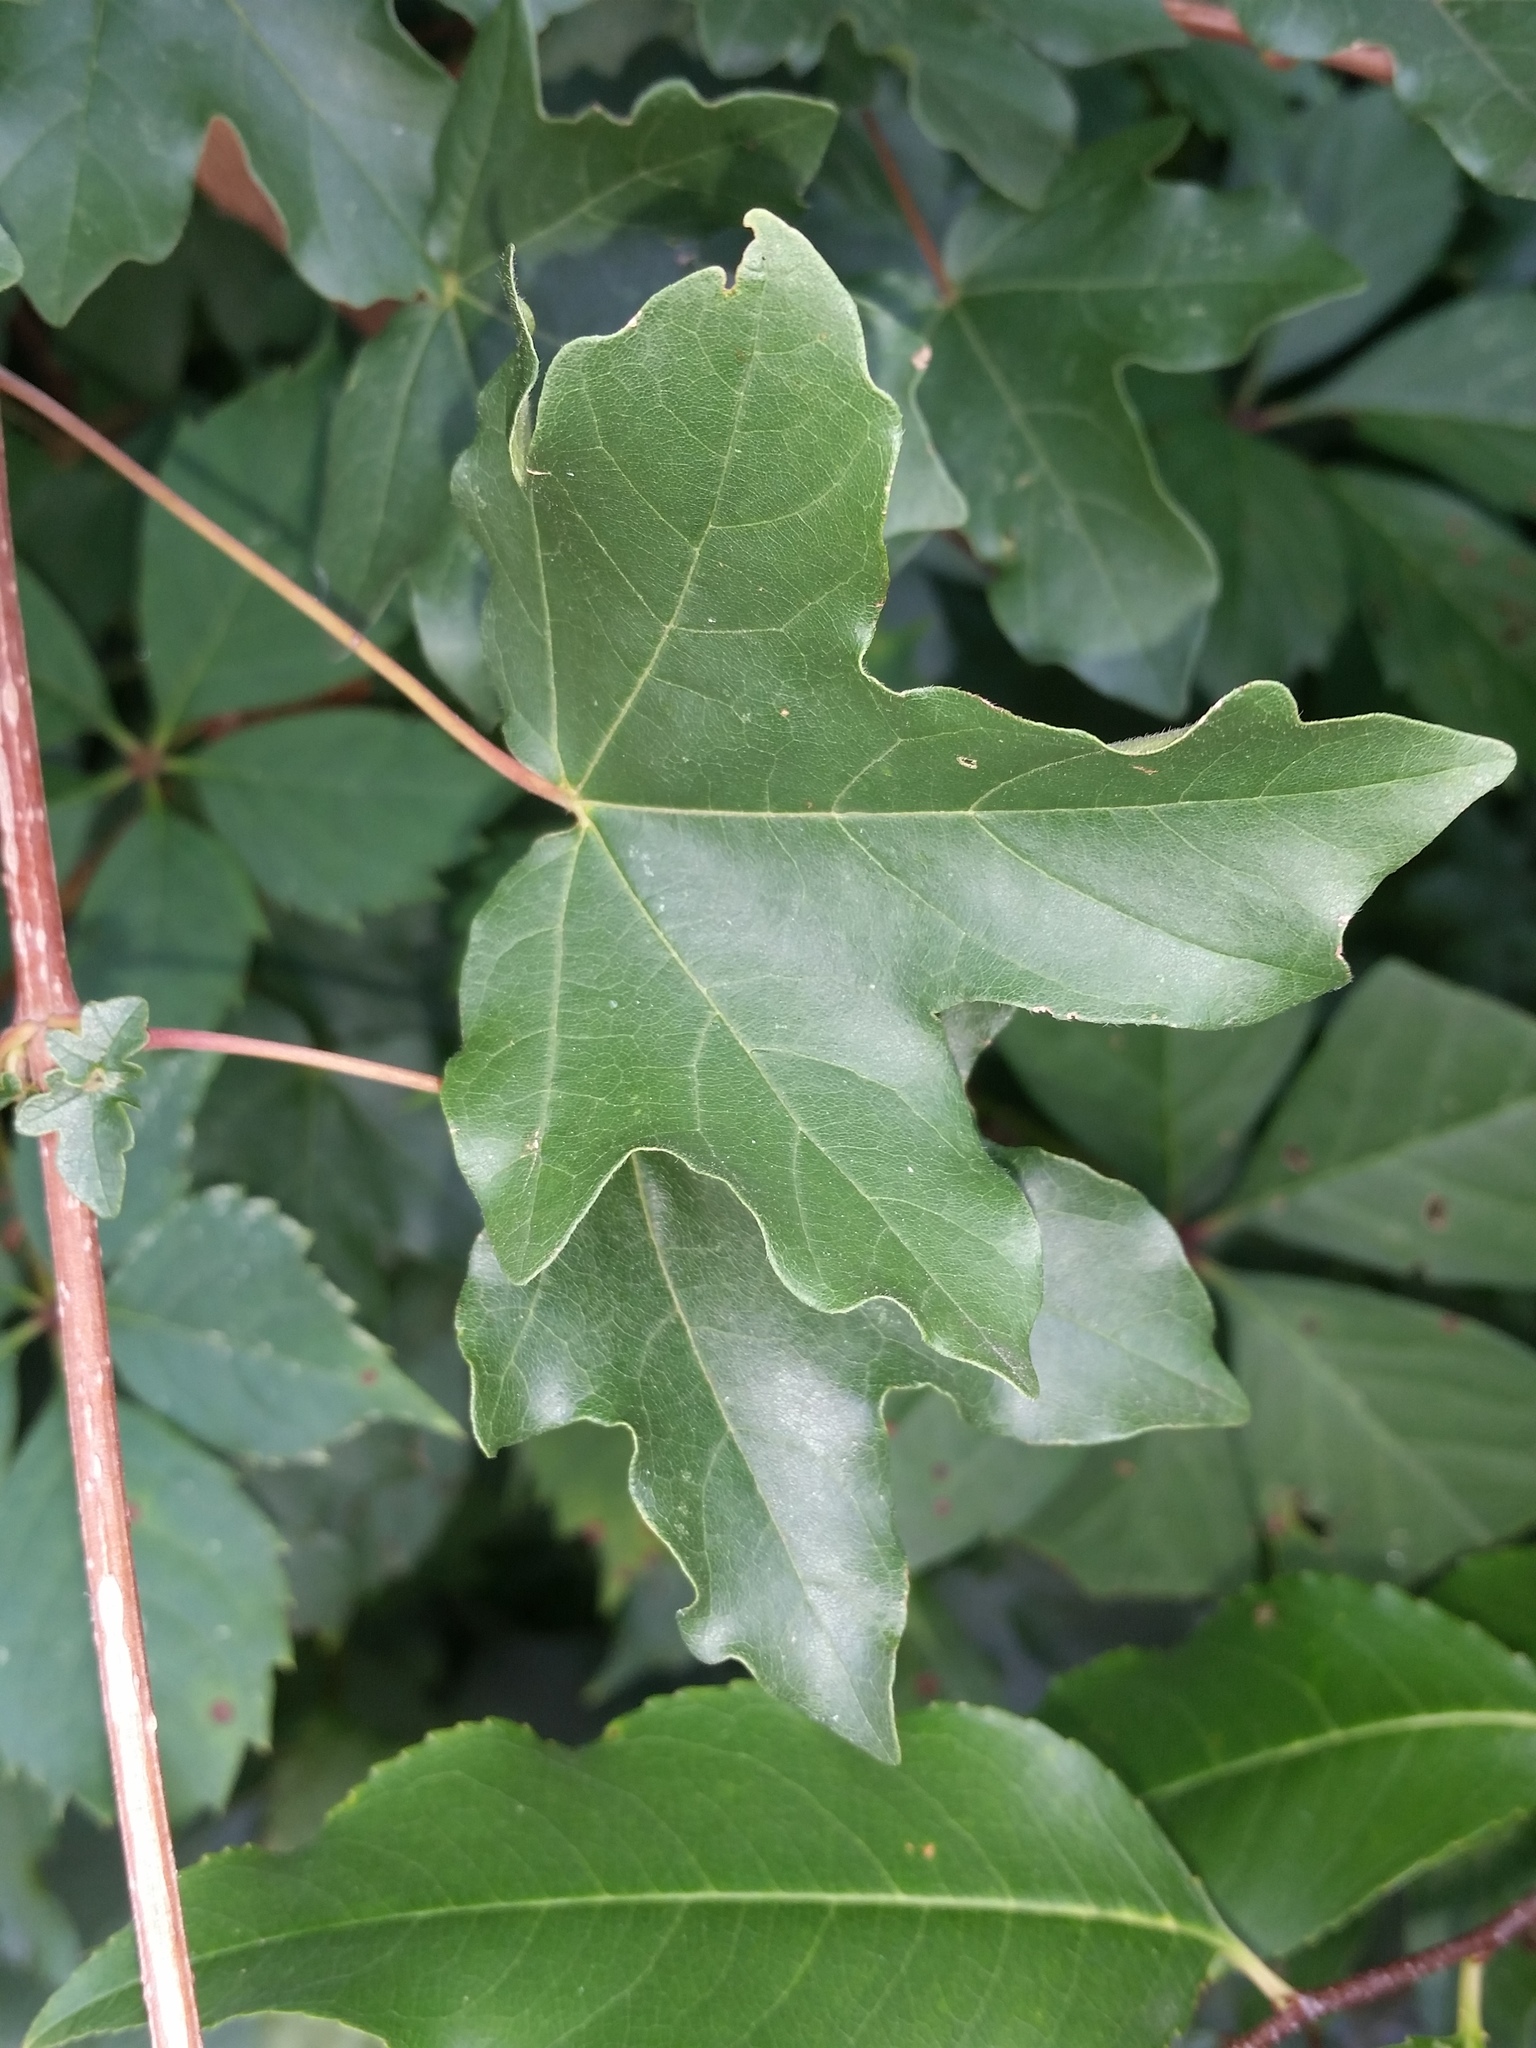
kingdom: Plantae
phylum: Tracheophyta
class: Magnoliopsida
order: Sapindales
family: Sapindaceae
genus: Acer
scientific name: Acer campestre
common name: Field maple
